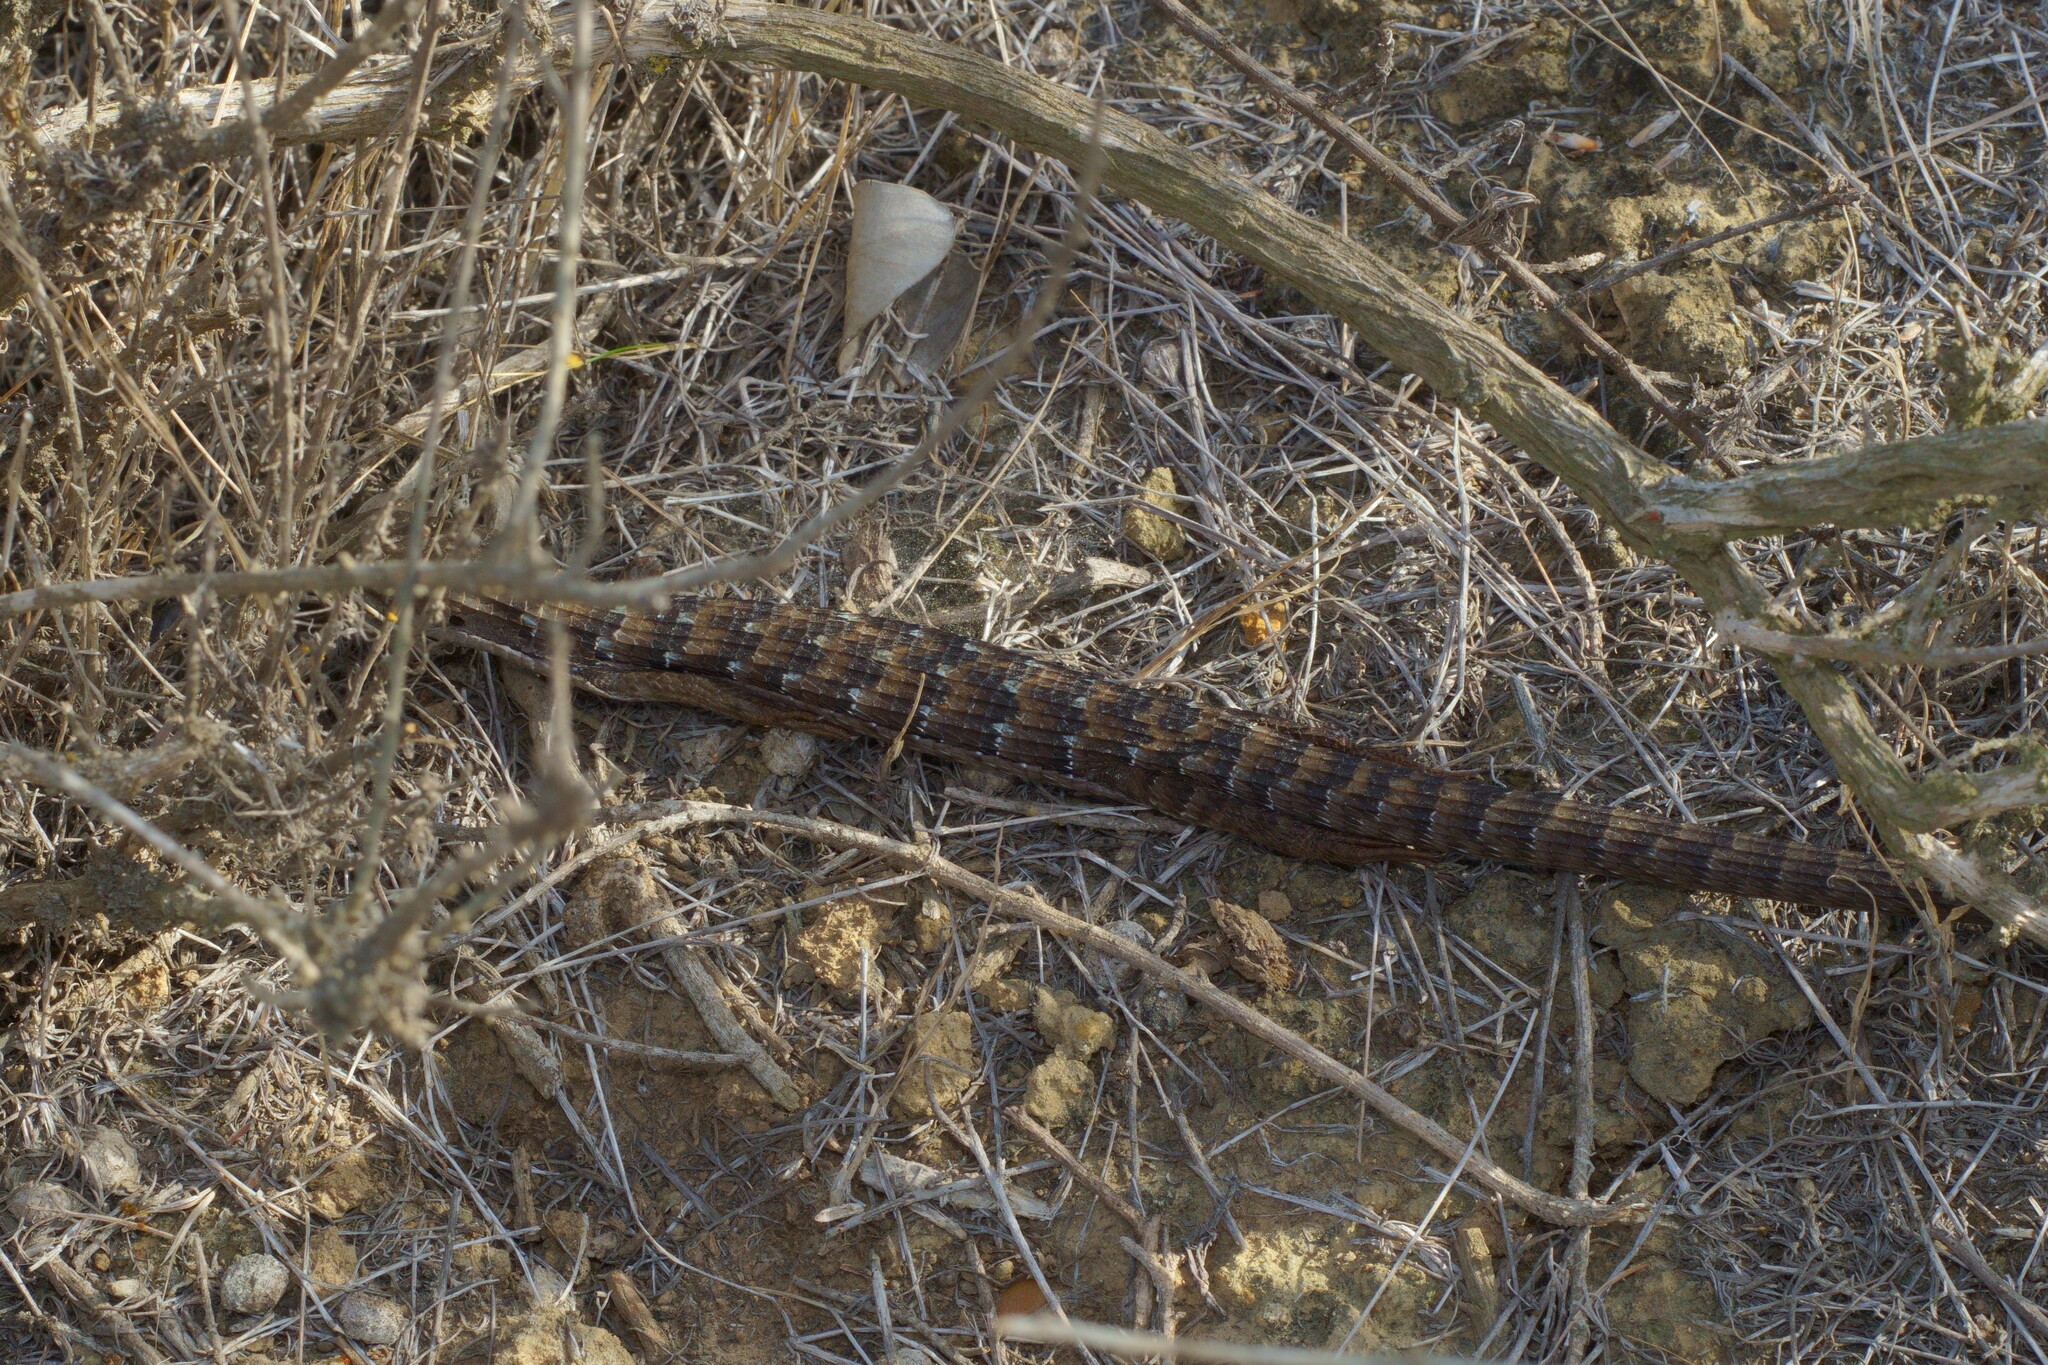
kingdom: Animalia
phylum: Chordata
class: Squamata
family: Anguidae
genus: Elgaria
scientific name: Elgaria multicarinata
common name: Southern alligator lizard
